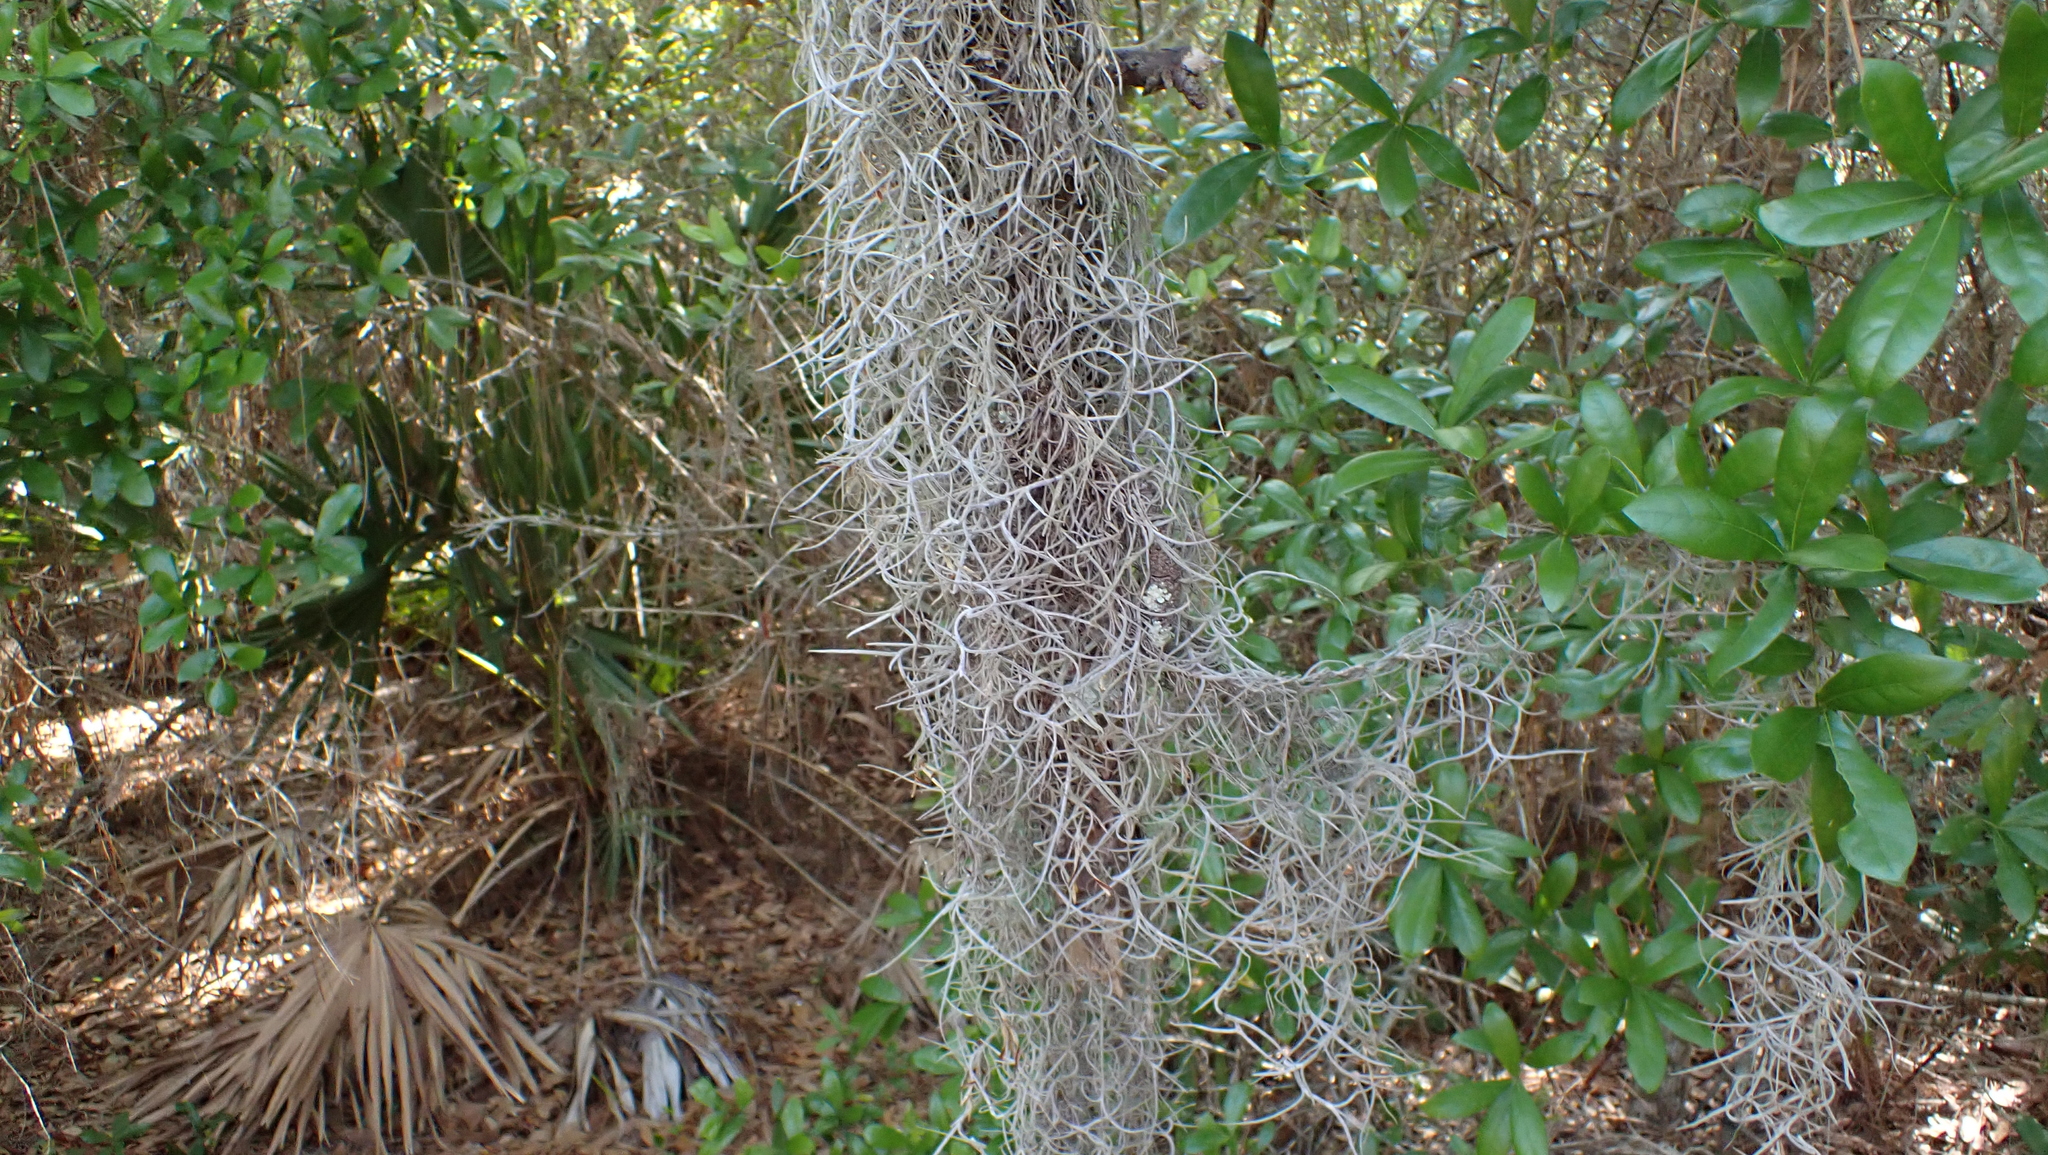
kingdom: Plantae
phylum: Tracheophyta
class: Liliopsida
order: Poales
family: Bromeliaceae
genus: Tillandsia
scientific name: Tillandsia usneoides
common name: Spanish moss
